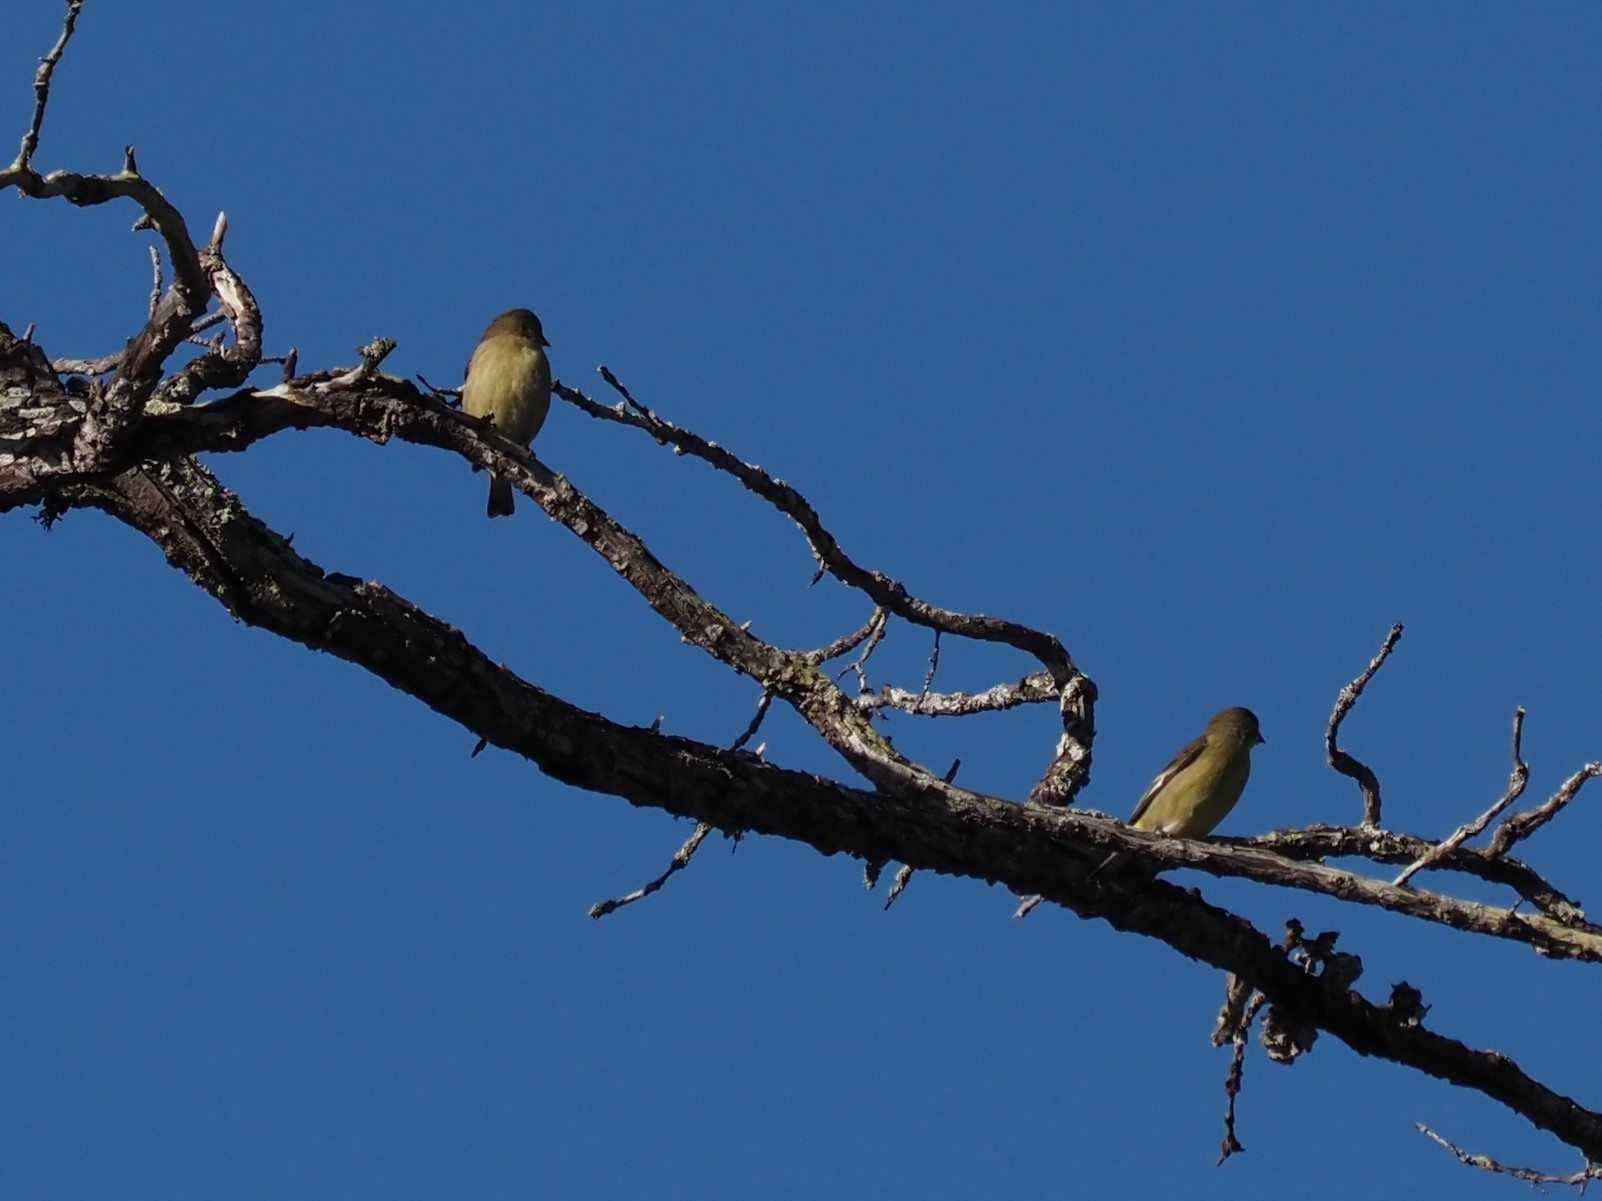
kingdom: Animalia
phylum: Chordata
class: Aves
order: Passeriformes
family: Fringillidae
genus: Spinus
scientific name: Spinus psaltria
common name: Lesser goldfinch
